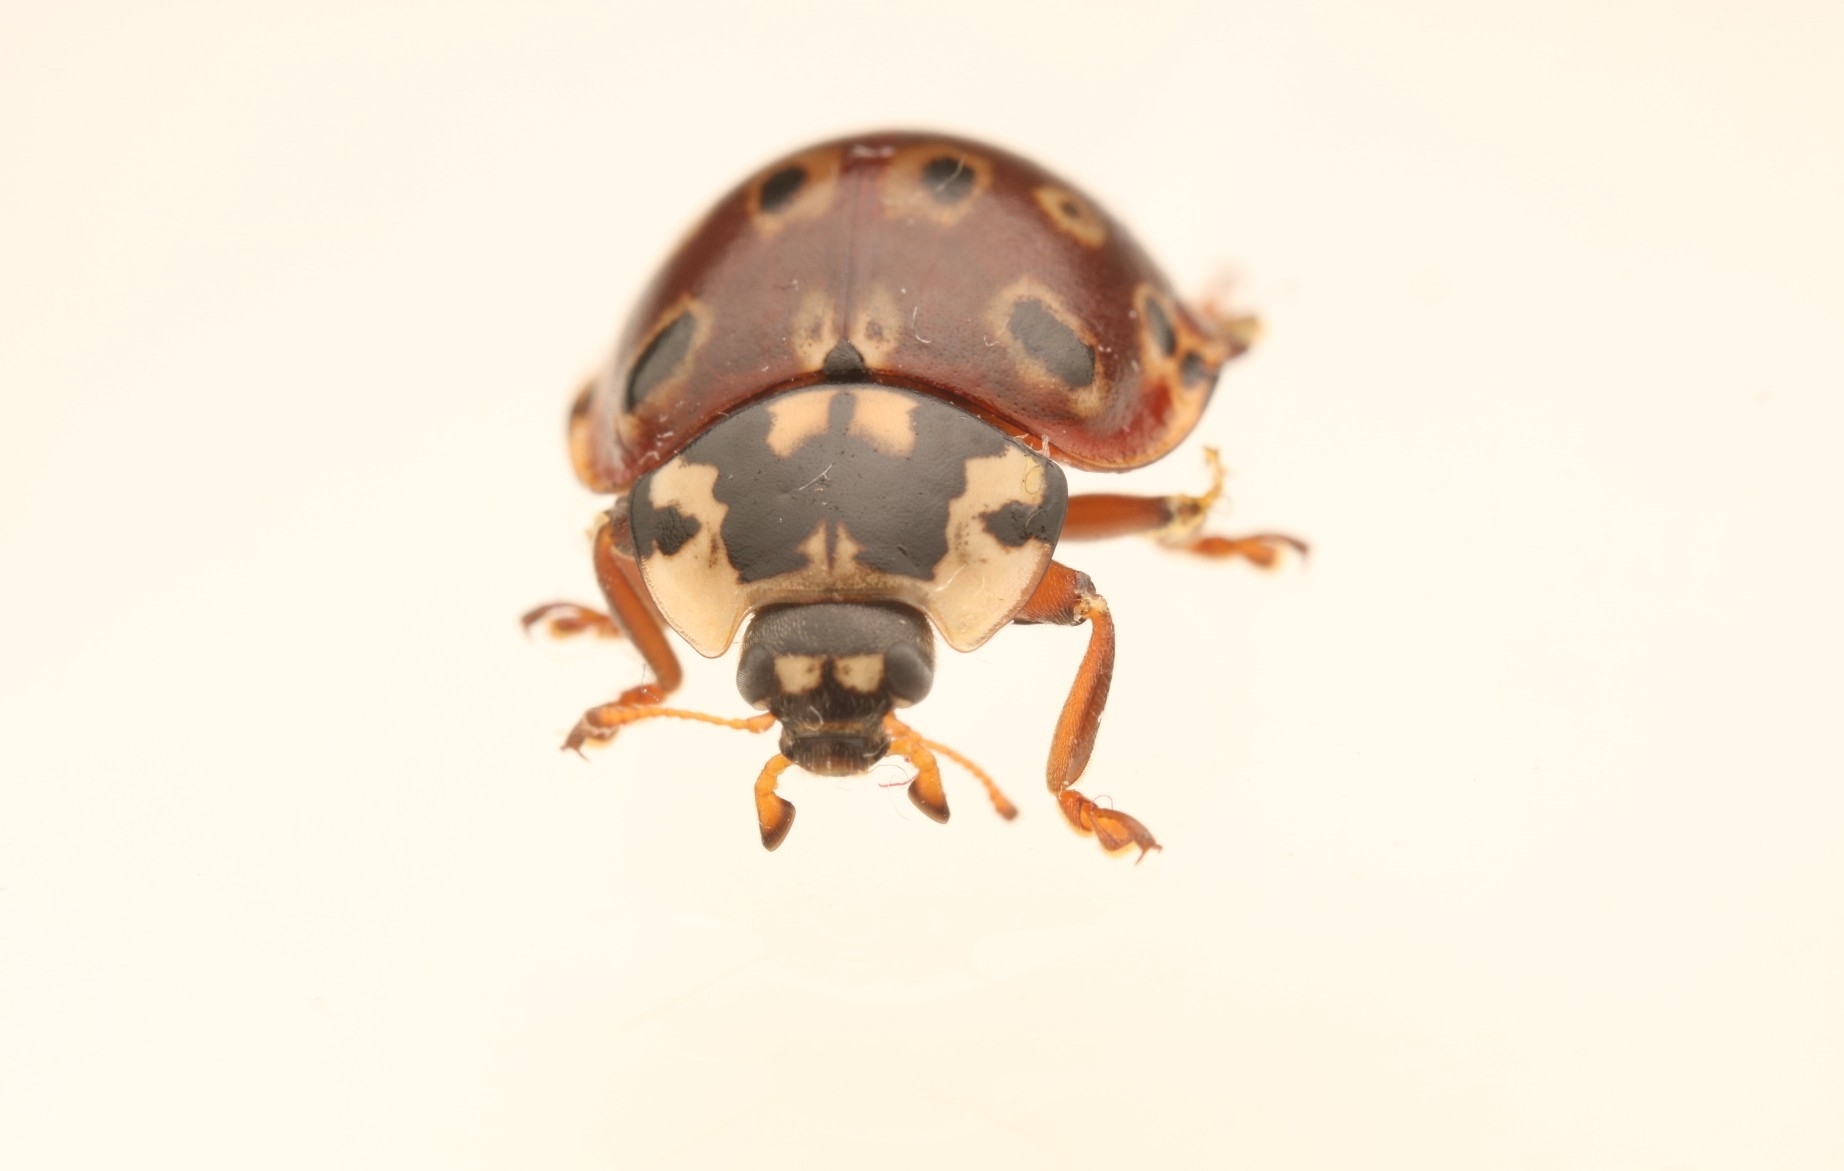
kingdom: Animalia
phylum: Arthropoda
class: Insecta
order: Coleoptera
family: Coccinellidae
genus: Anatis
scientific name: Anatis mali
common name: Eye-spotted lady beetle
